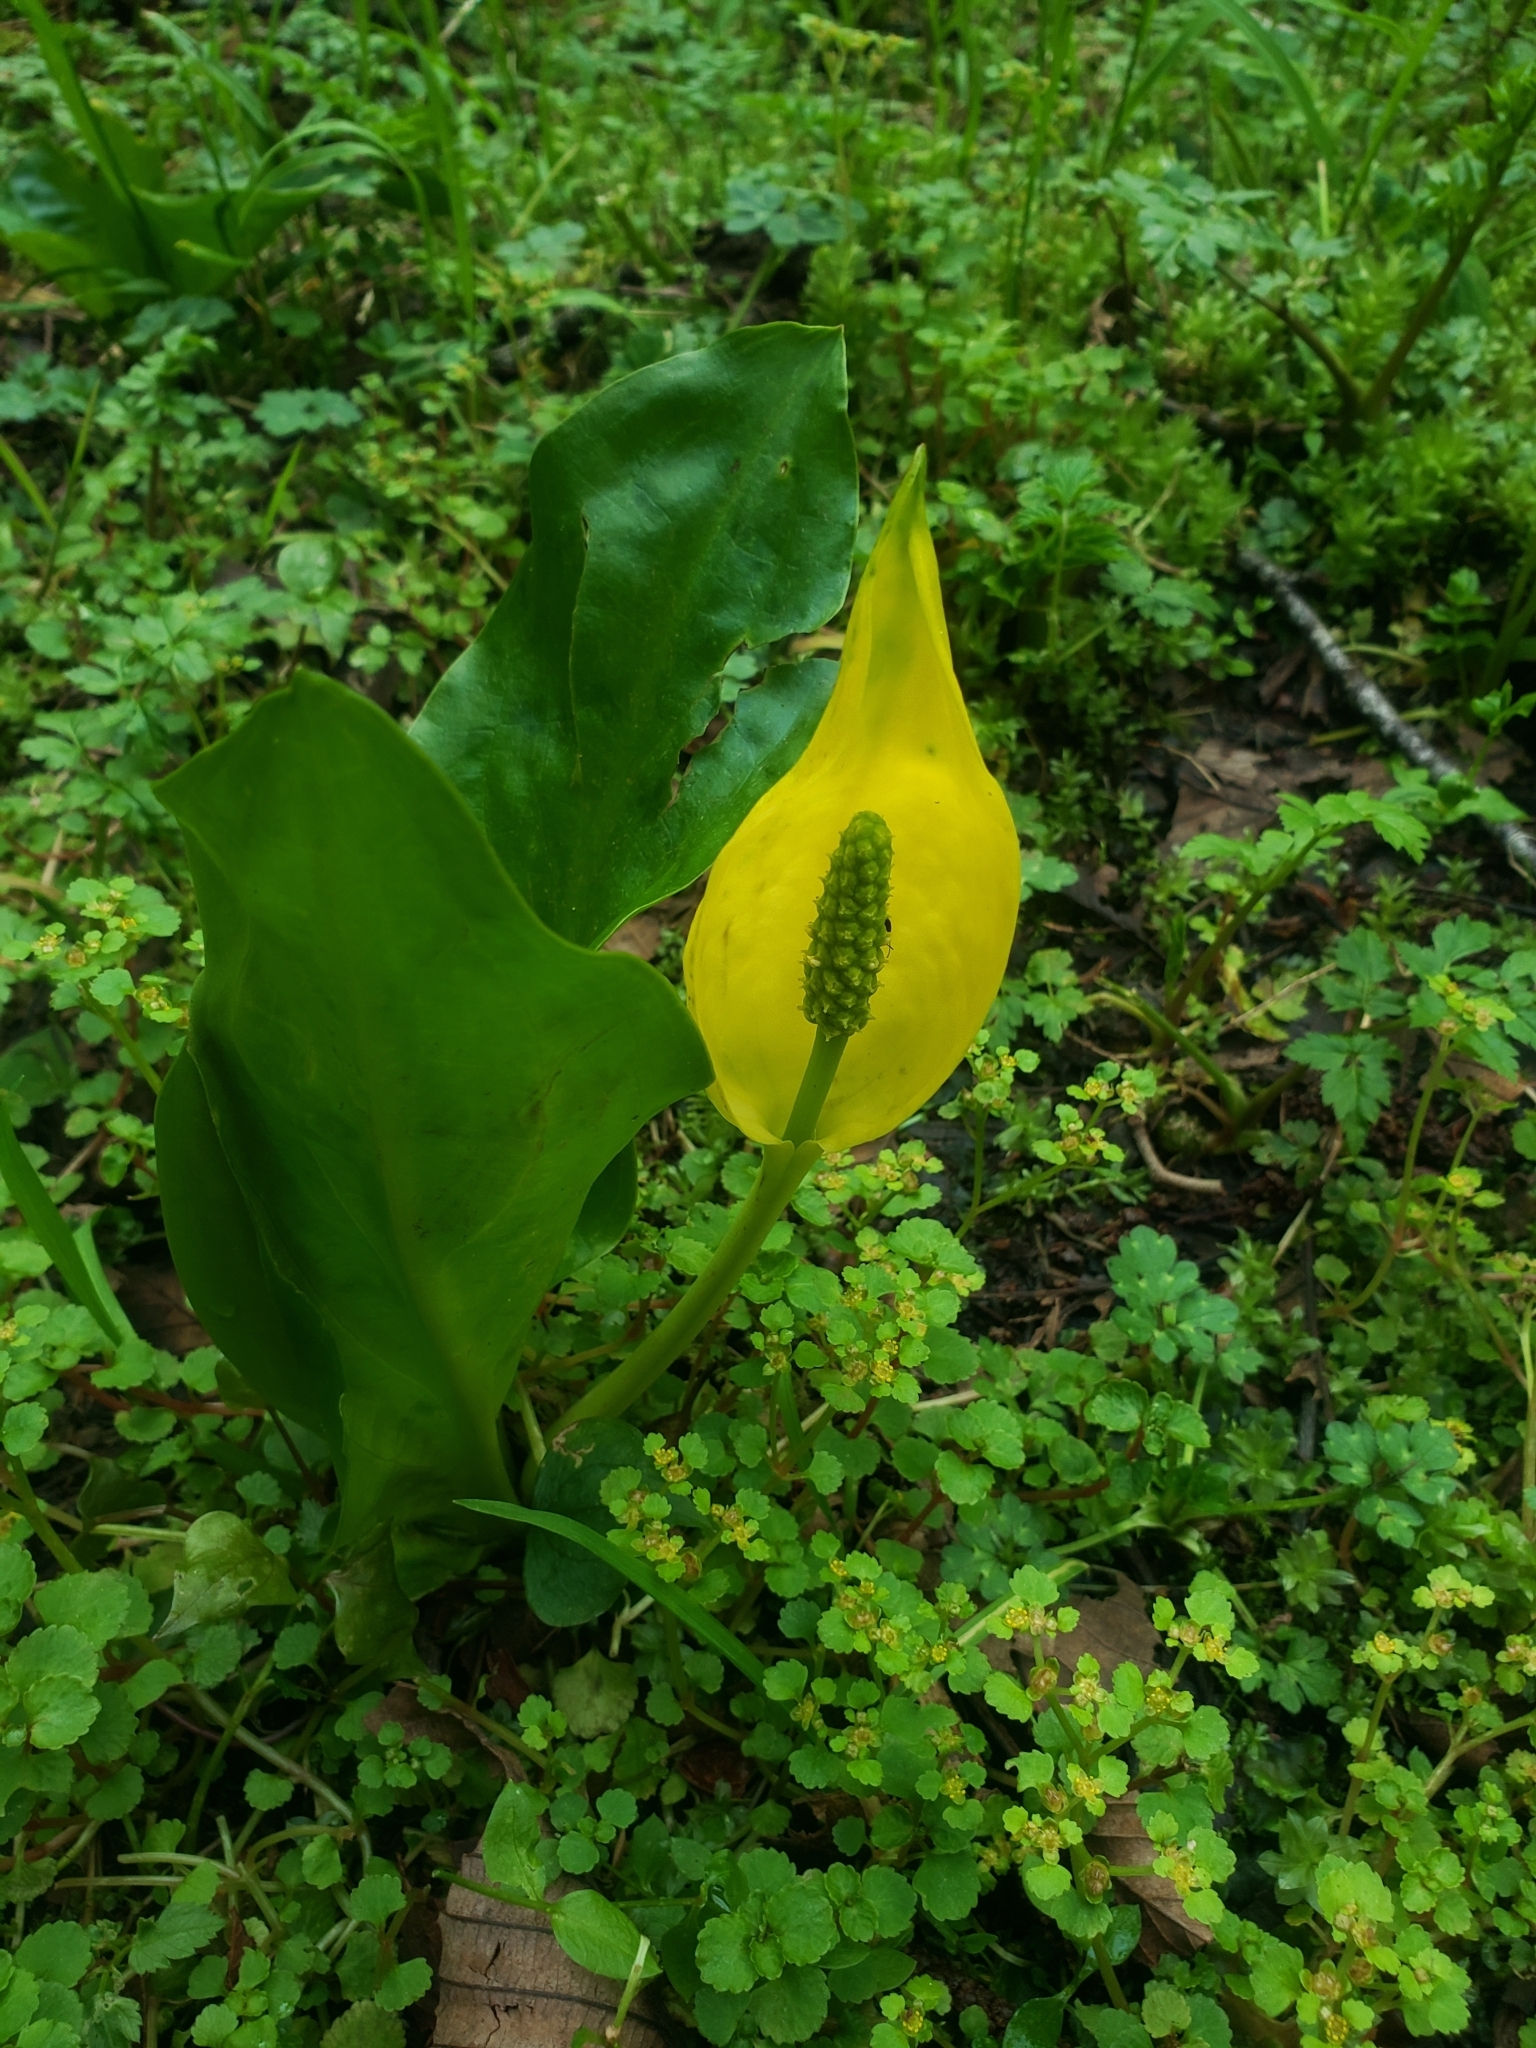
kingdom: Plantae
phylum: Tracheophyta
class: Liliopsida
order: Alismatales
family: Araceae
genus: Lysichiton
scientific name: Lysichiton americanus
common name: American skunk cabbage
